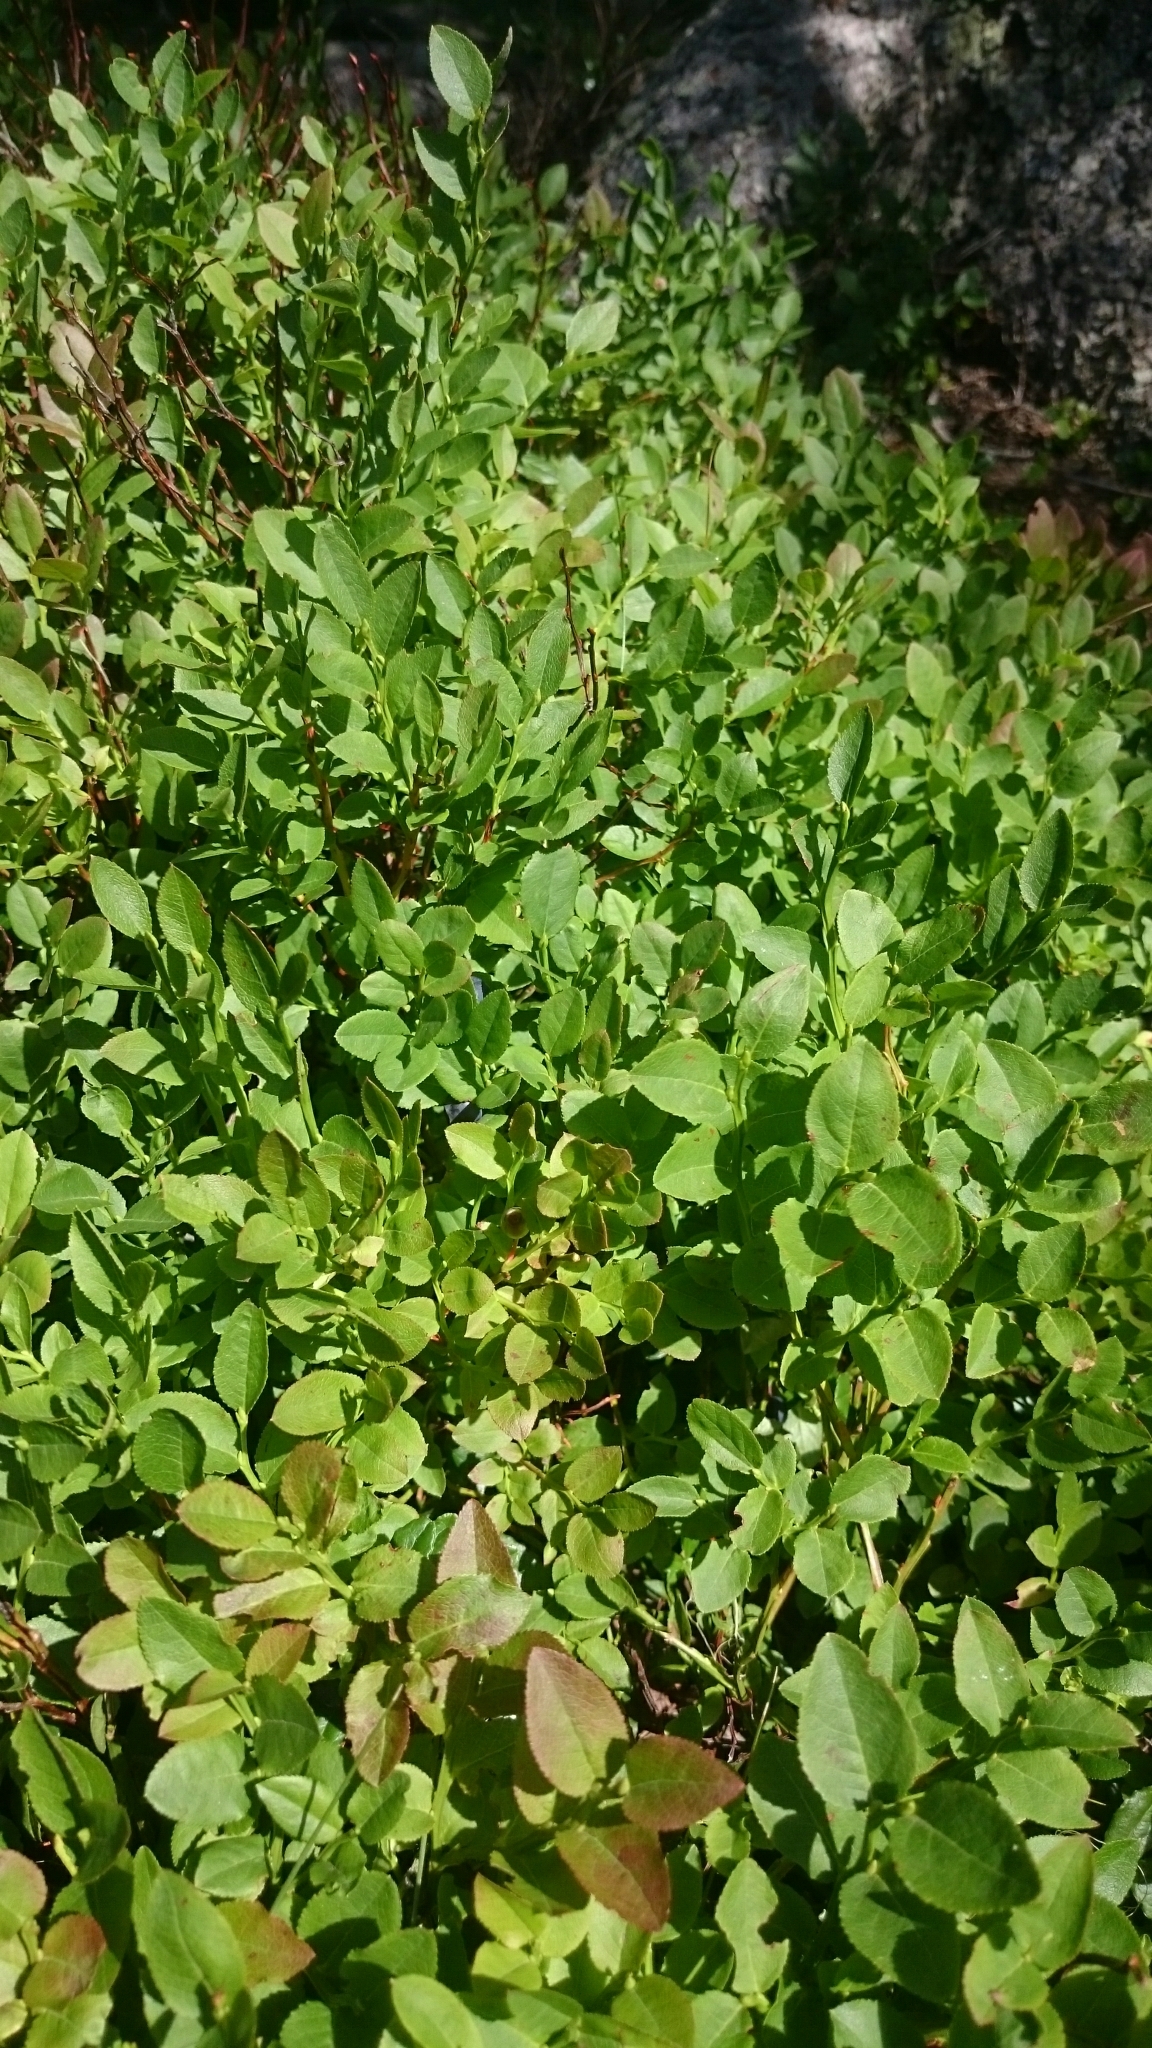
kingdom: Plantae
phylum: Tracheophyta
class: Magnoliopsida
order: Ericales
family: Ericaceae
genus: Vaccinium
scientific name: Vaccinium myrtillus
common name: Bilberry
